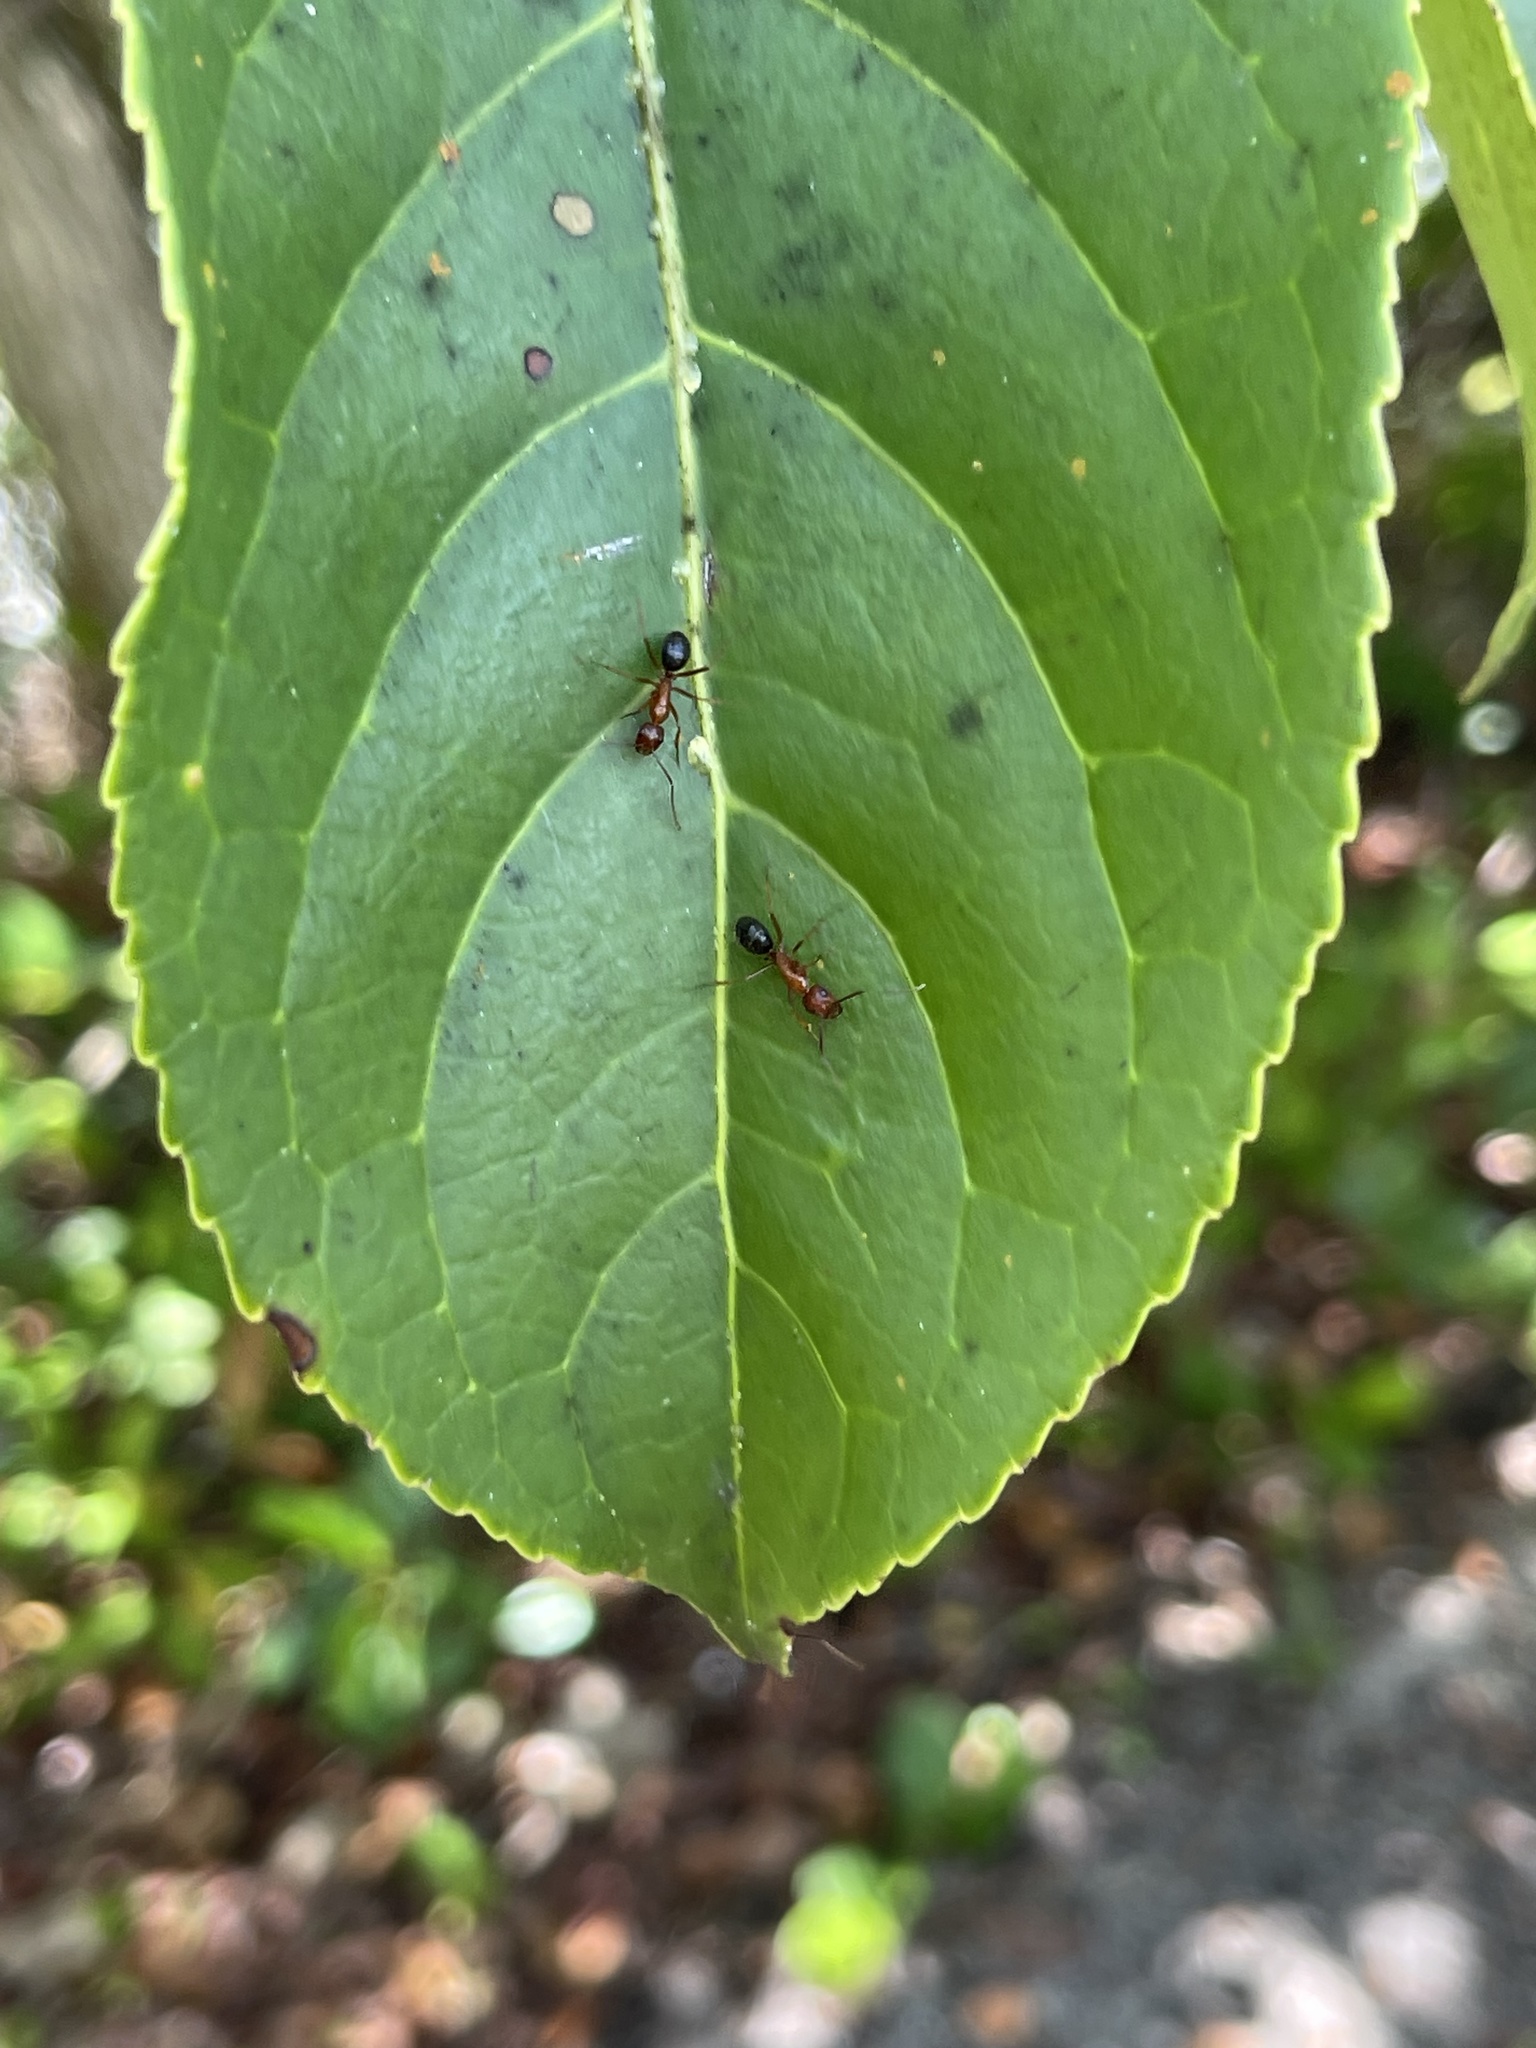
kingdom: Animalia
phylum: Arthropoda
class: Insecta
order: Hymenoptera
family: Formicidae
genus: Camponotus
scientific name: Camponotus floridanus
